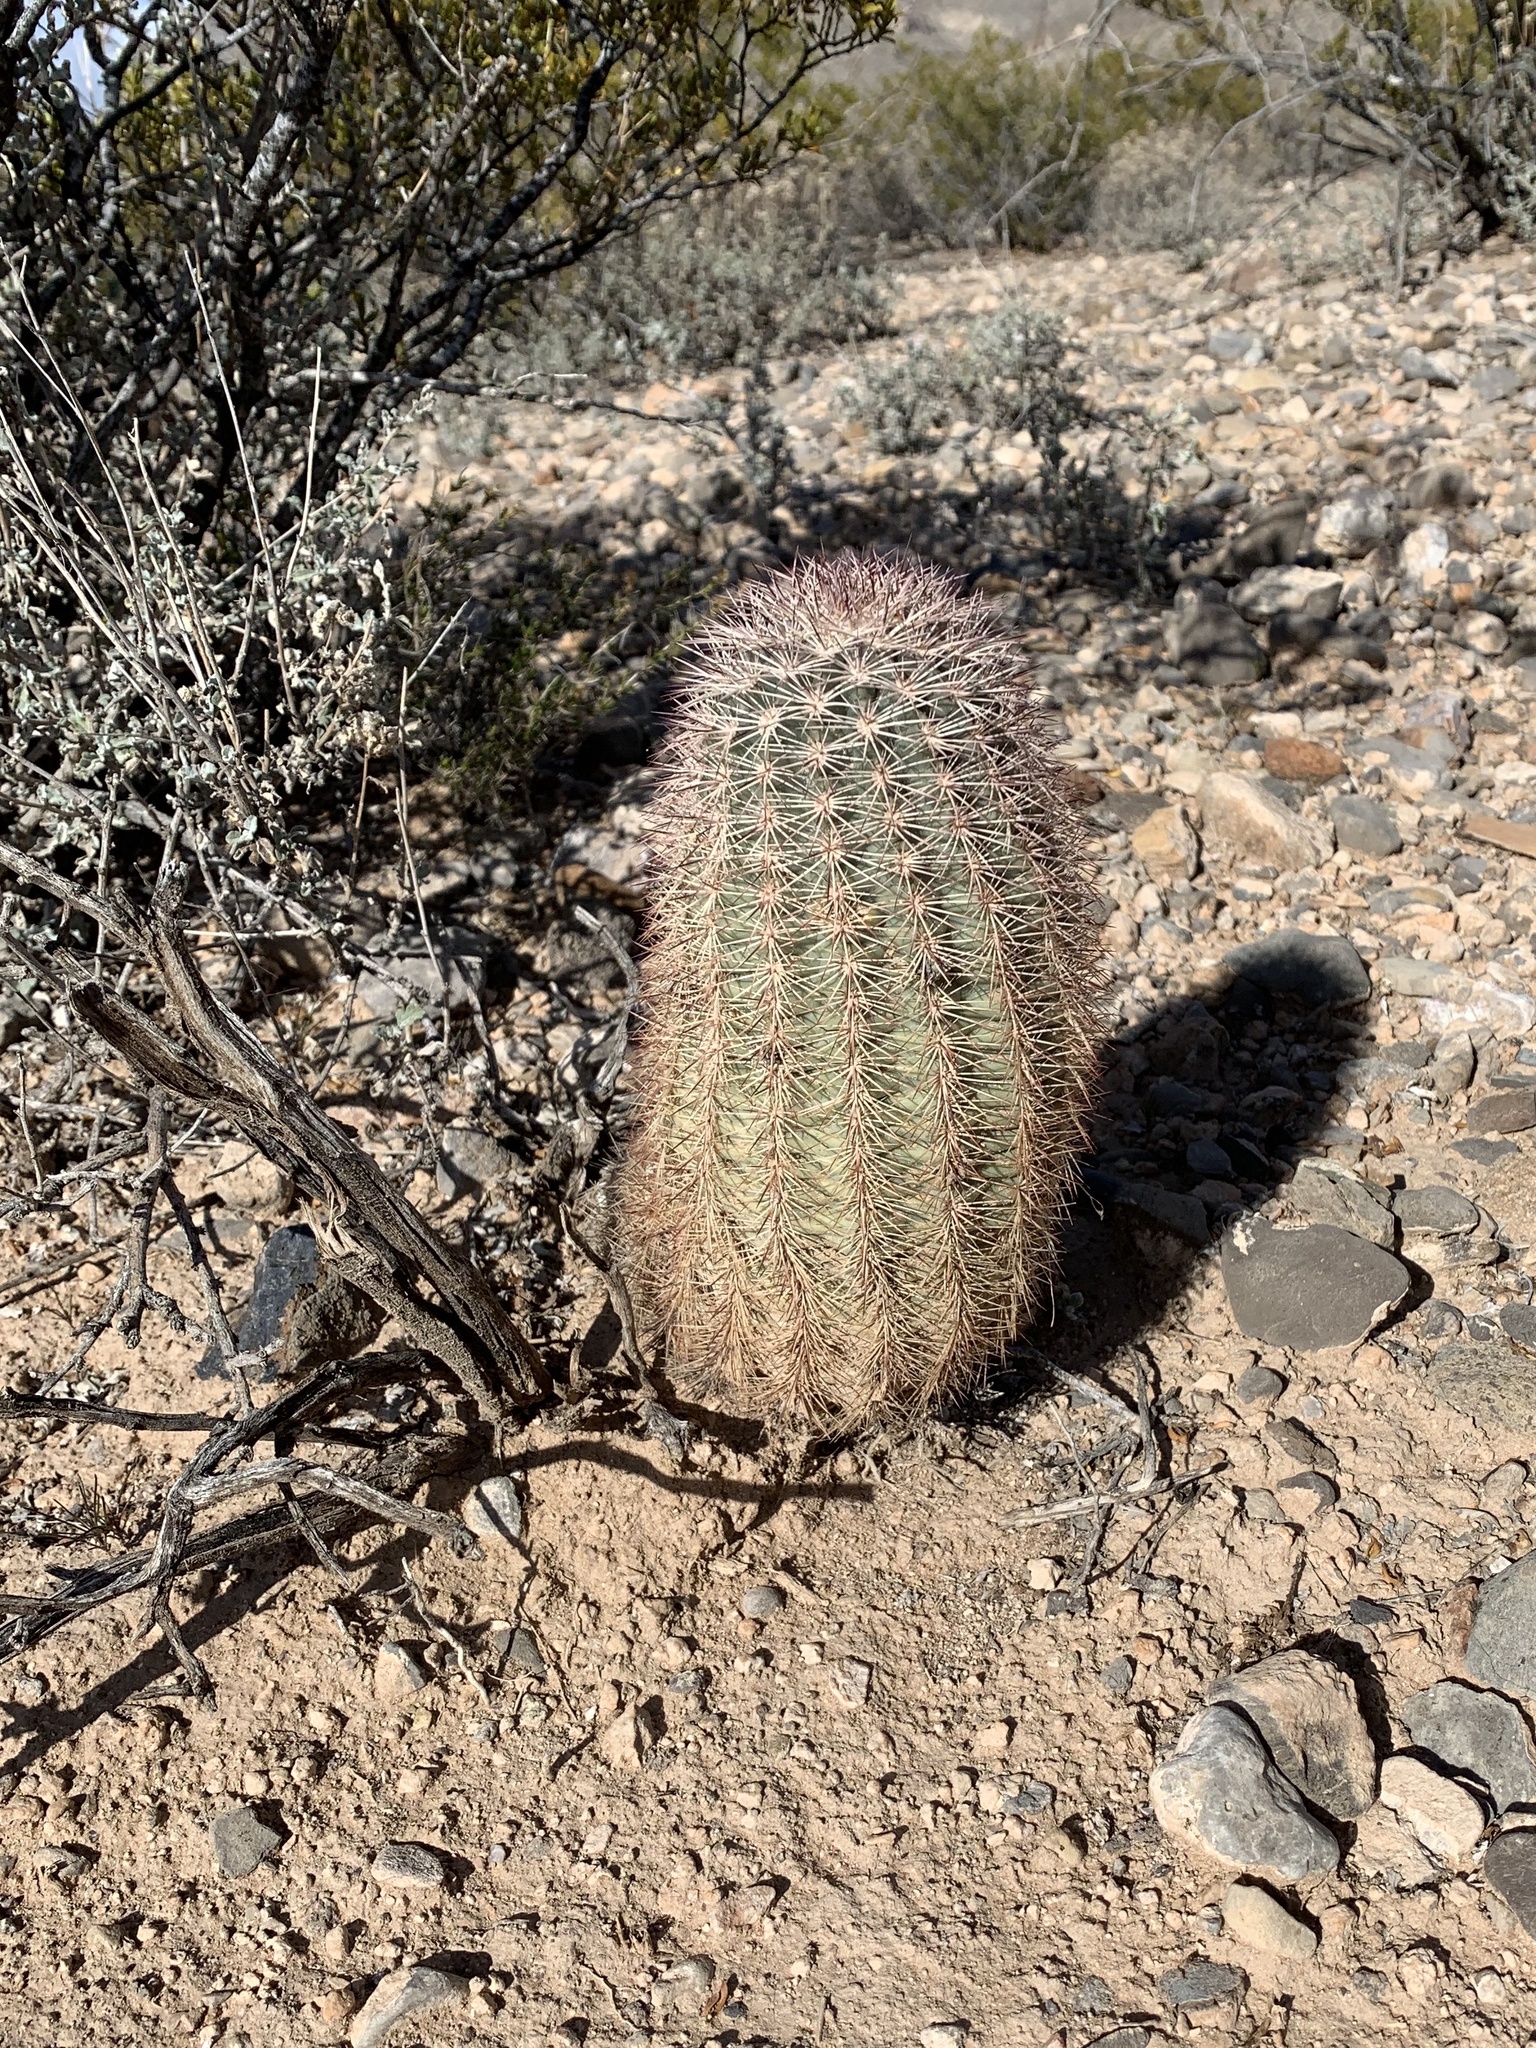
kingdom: Plantae
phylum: Tracheophyta
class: Magnoliopsida
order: Caryophyllales
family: Cactaceae
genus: Echinocereus
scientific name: Echinocereus dasyacanthus
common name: Spiny hedgehog cactus
